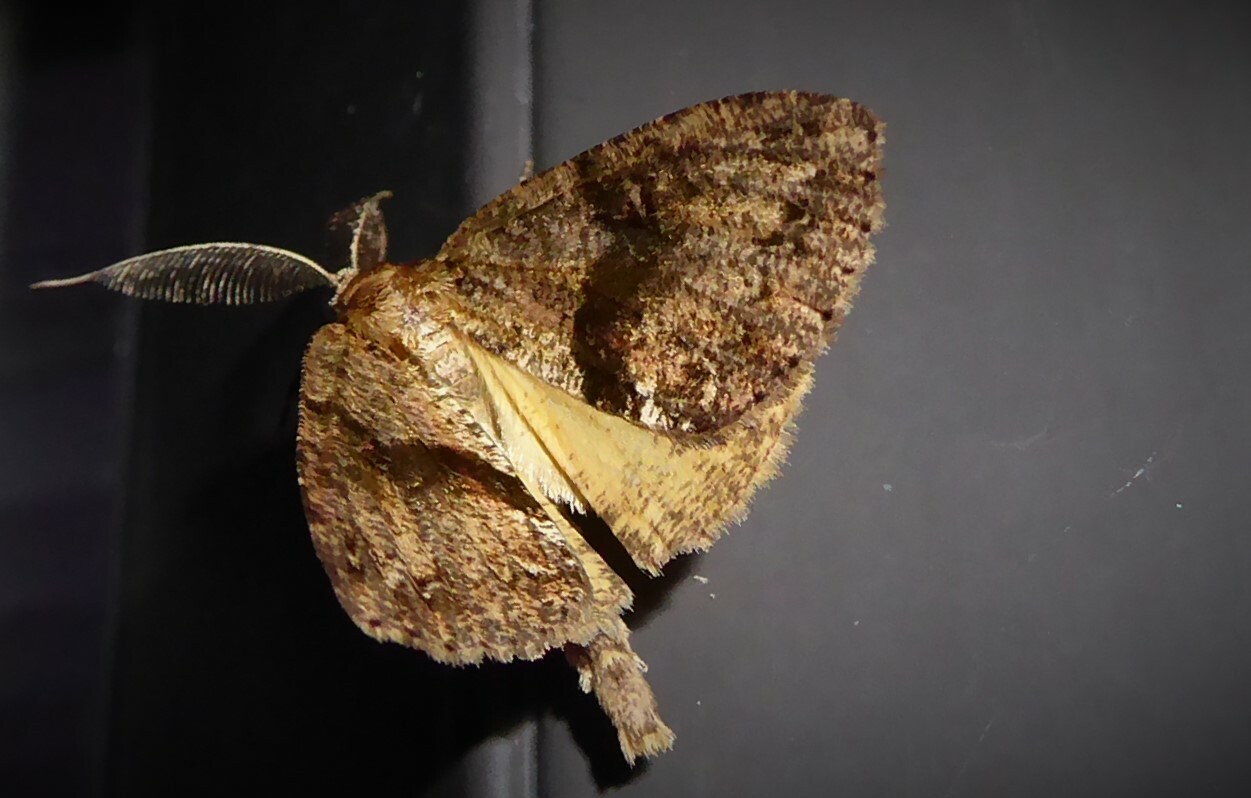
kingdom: Animalia
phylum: Arthropoda
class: Insecta
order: Lepidoptera
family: Geometridae
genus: Pseudocoremia
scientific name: Pseudocoremia suavis
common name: Common forest looper
